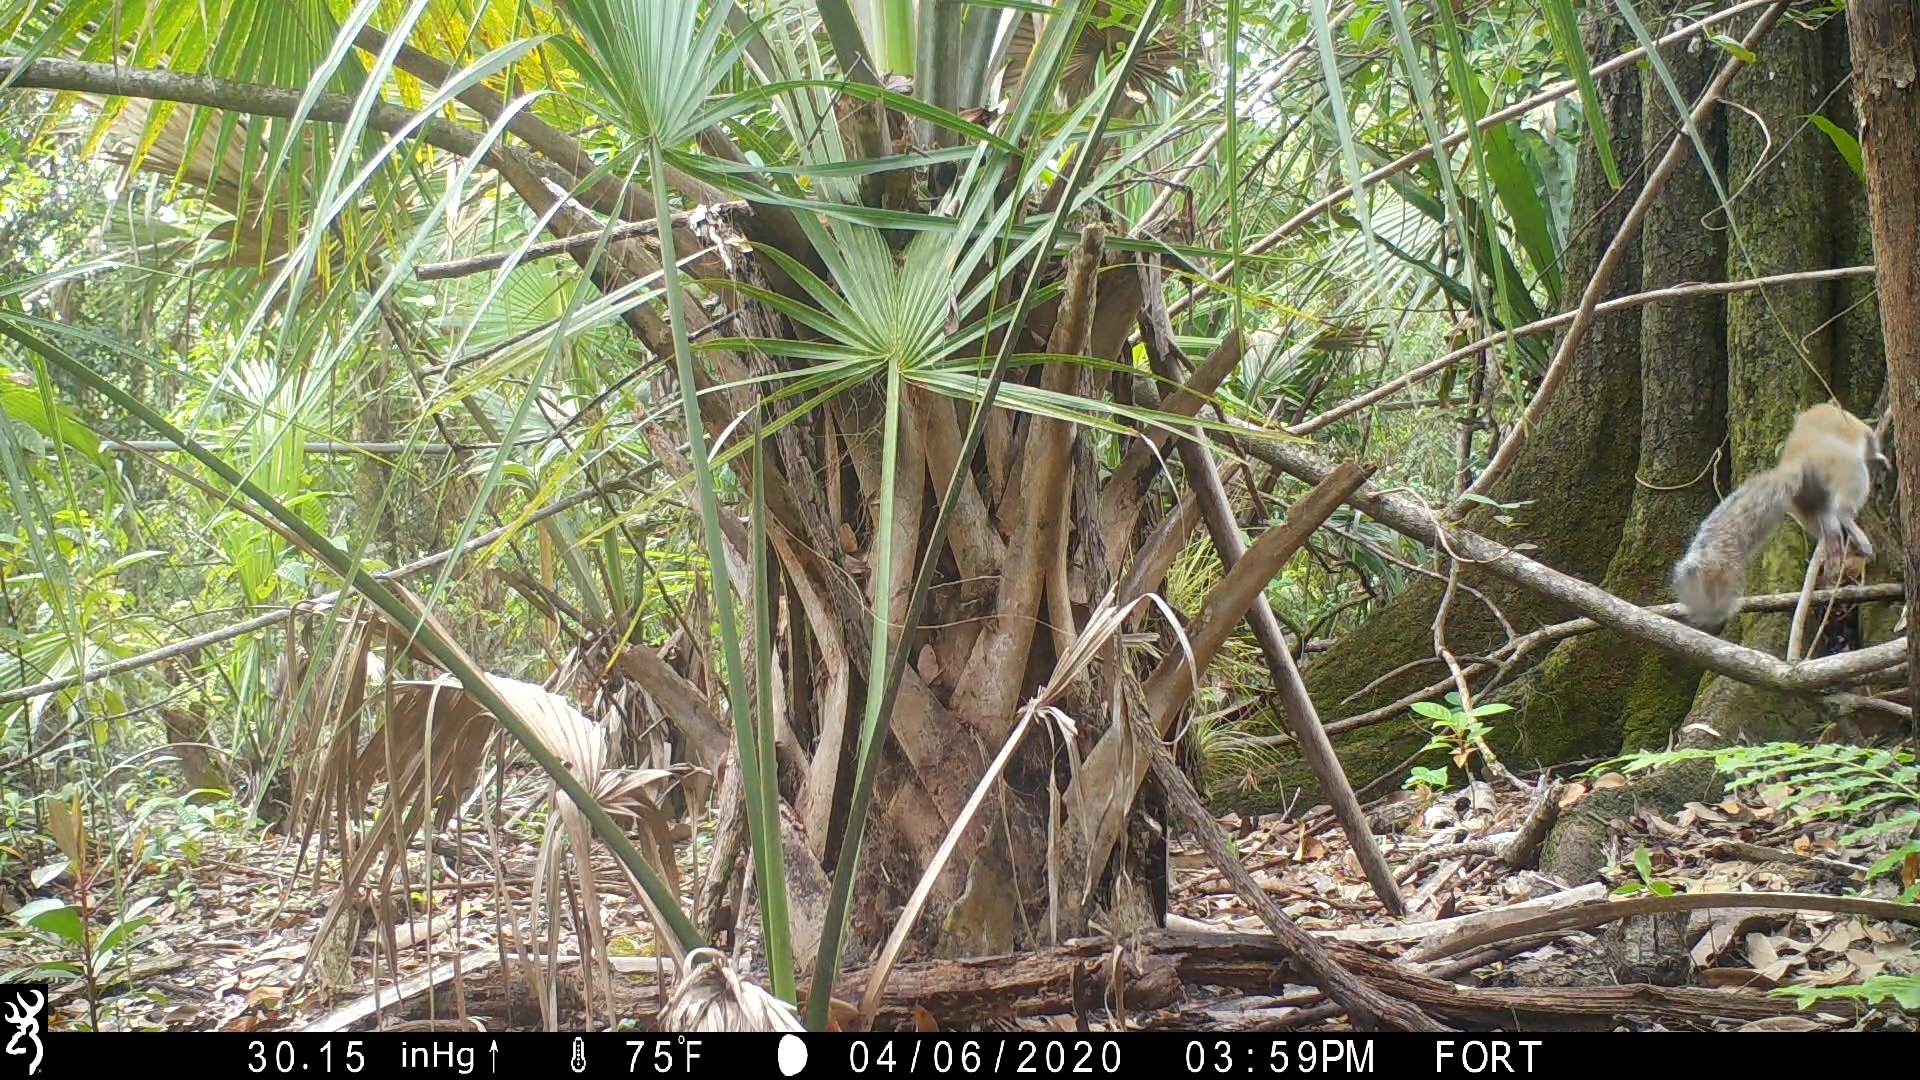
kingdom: Animalia
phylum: Chordata
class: Mammalia
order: Rodentia
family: Sciuridae
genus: Sciurus
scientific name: Sciurus carolinensis
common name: Eastern gray squirrel
